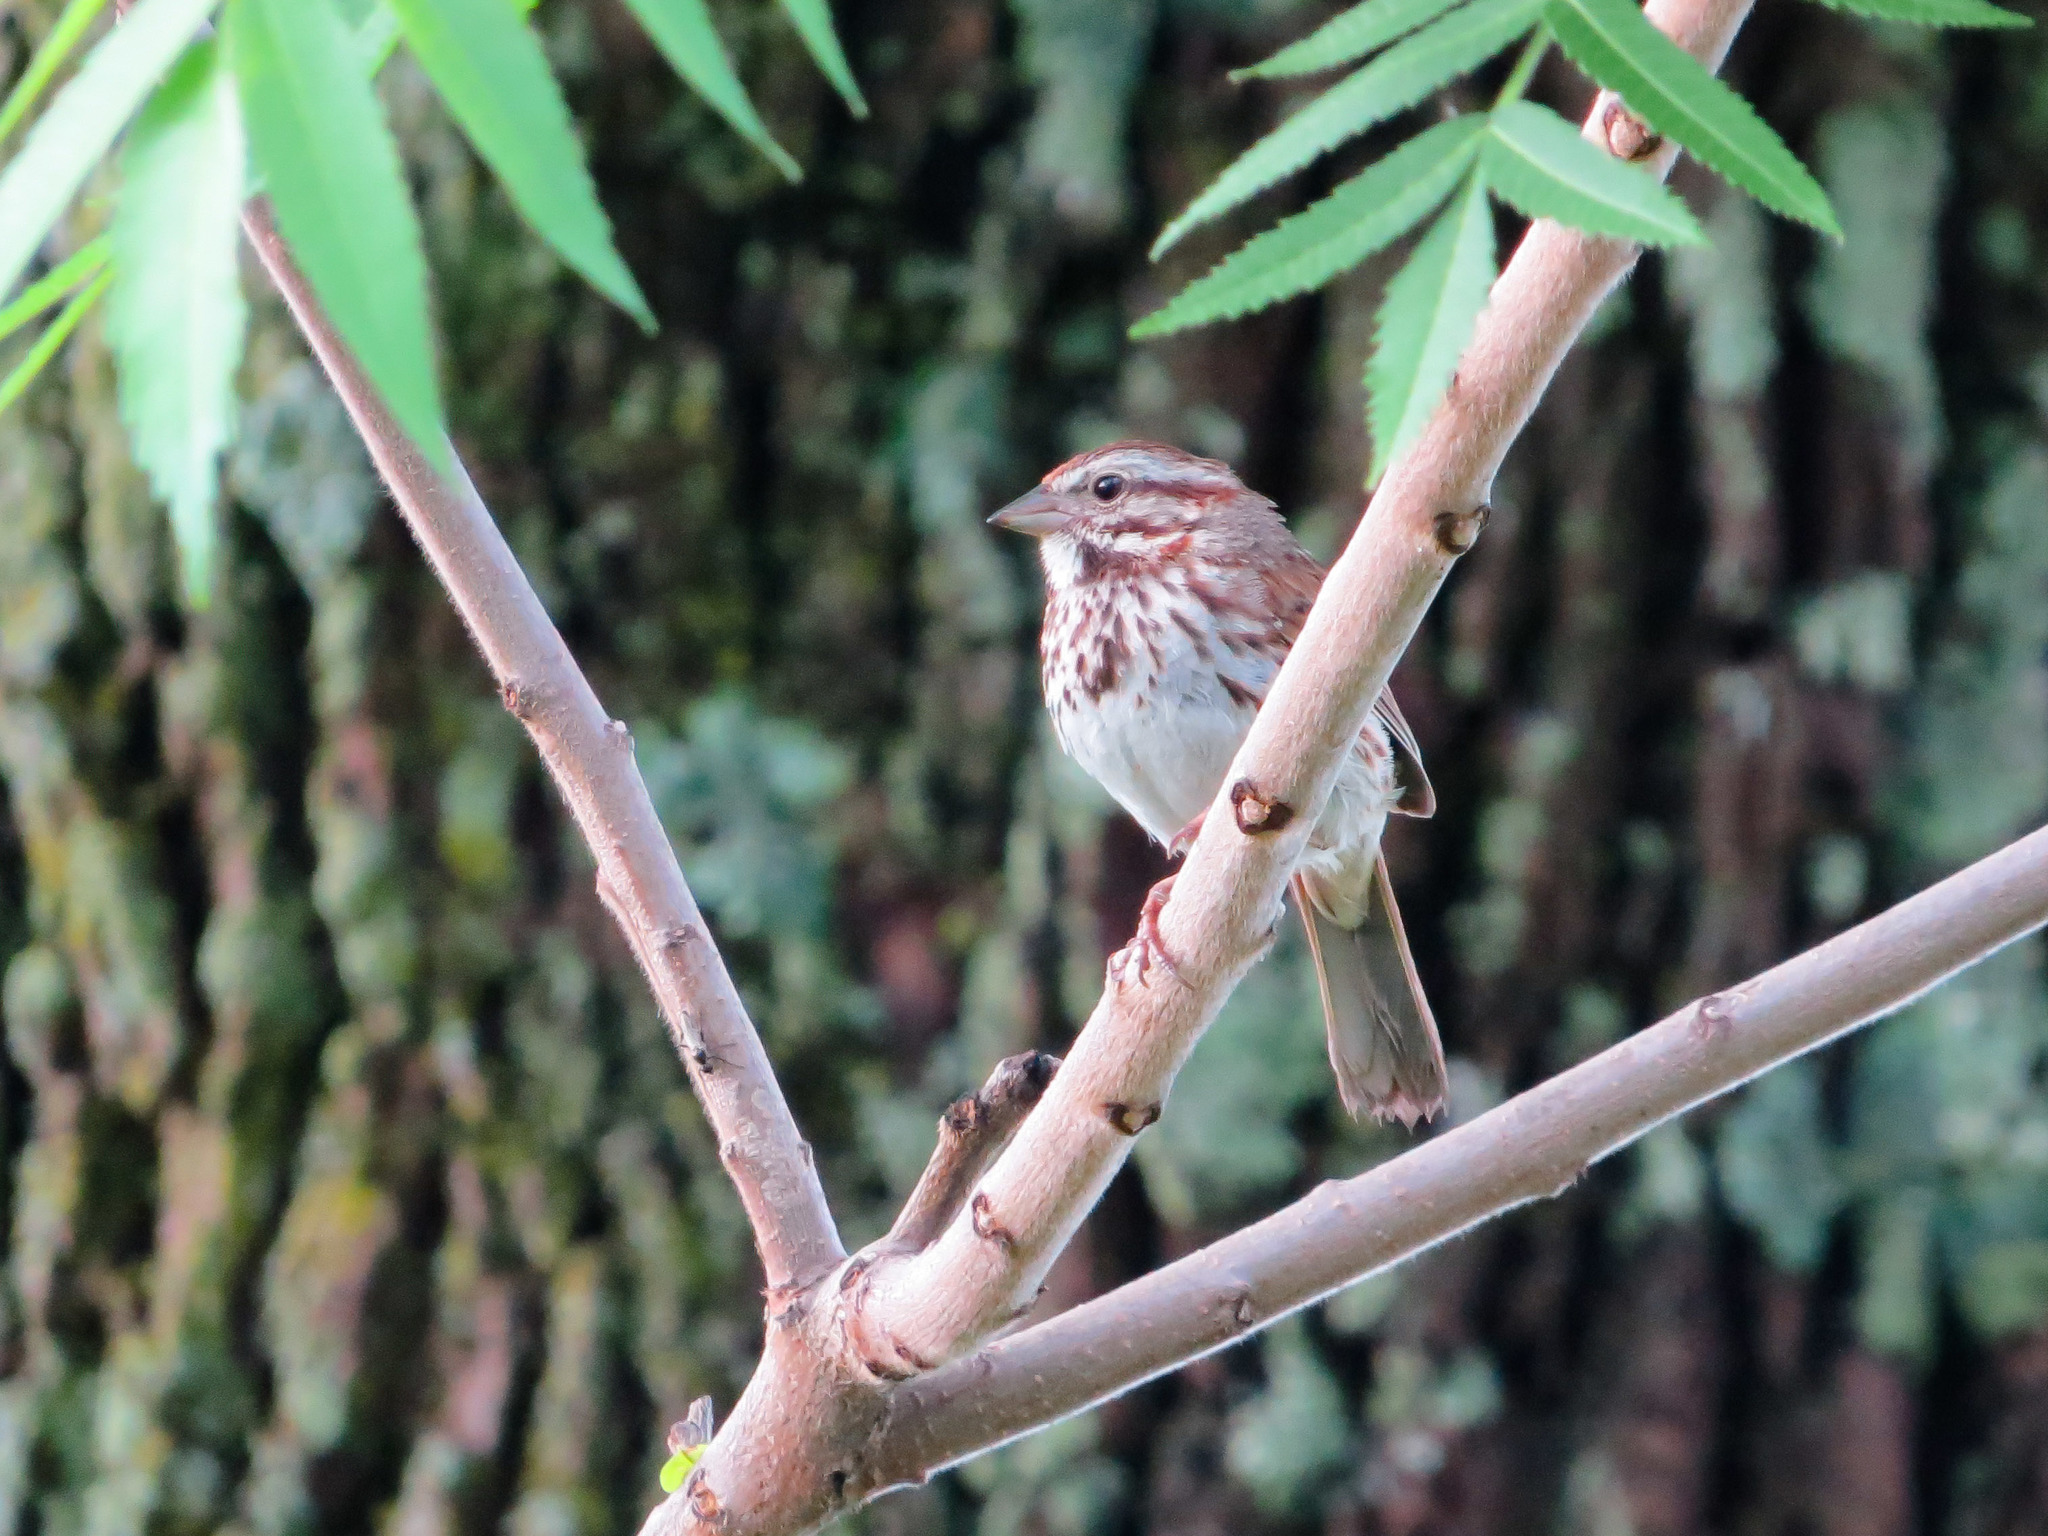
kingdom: Animalia
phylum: Chordata
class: Aves
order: Passeriformes
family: Passerellidae
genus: Melospiza
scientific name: Melospiza melodia
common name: Song sparrow
